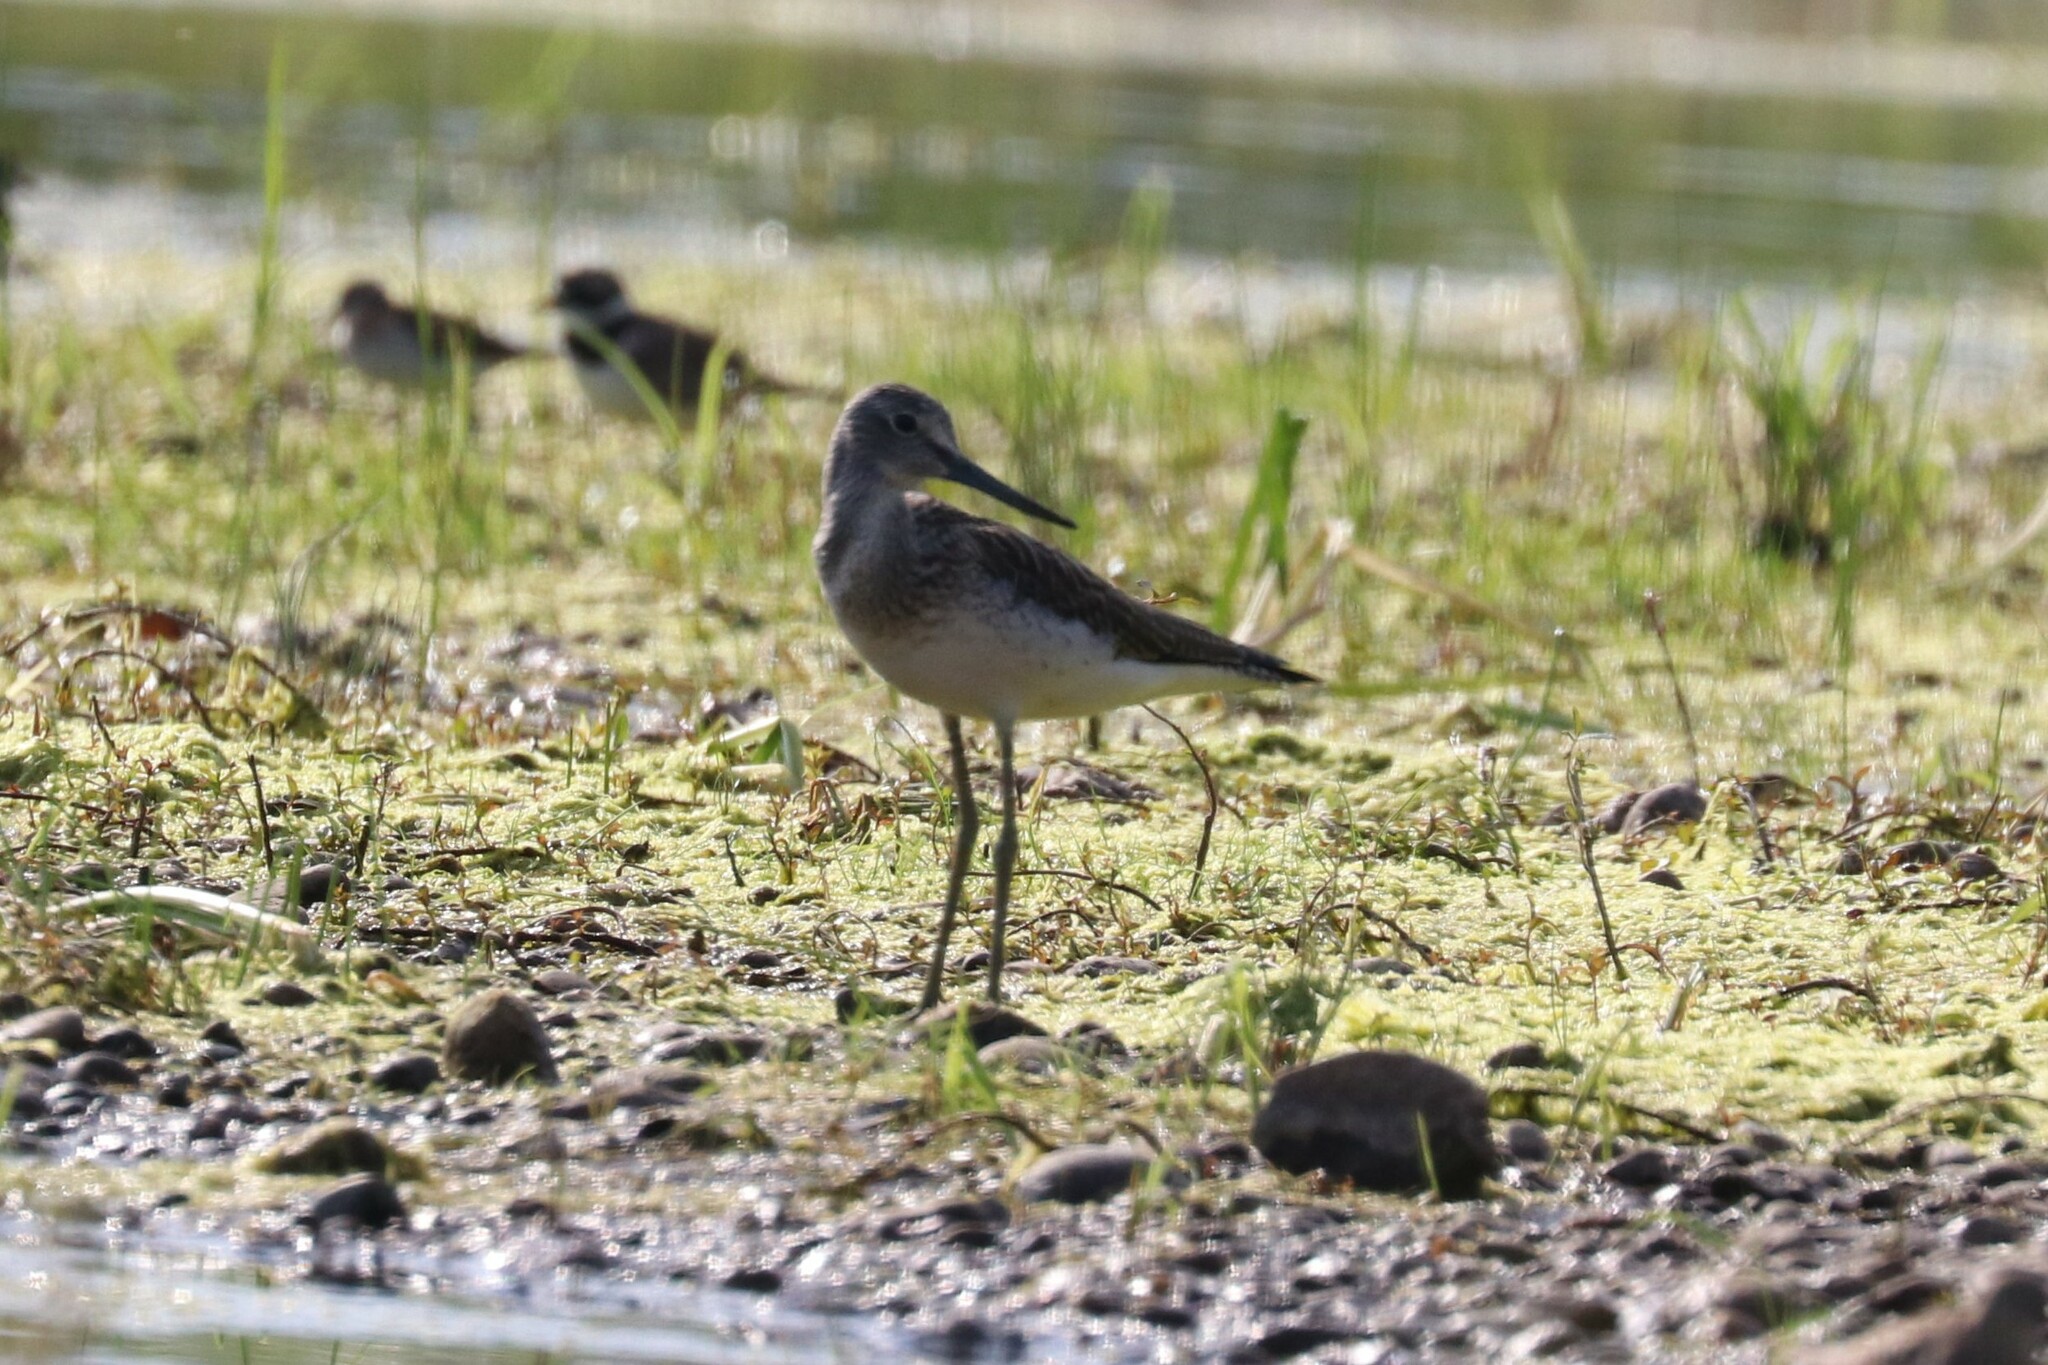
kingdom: Animalia
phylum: Chordata
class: Aves
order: Charadriiformes
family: Scolopacidae
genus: Tringa
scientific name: Tringa nebularia
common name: Common greenshank
